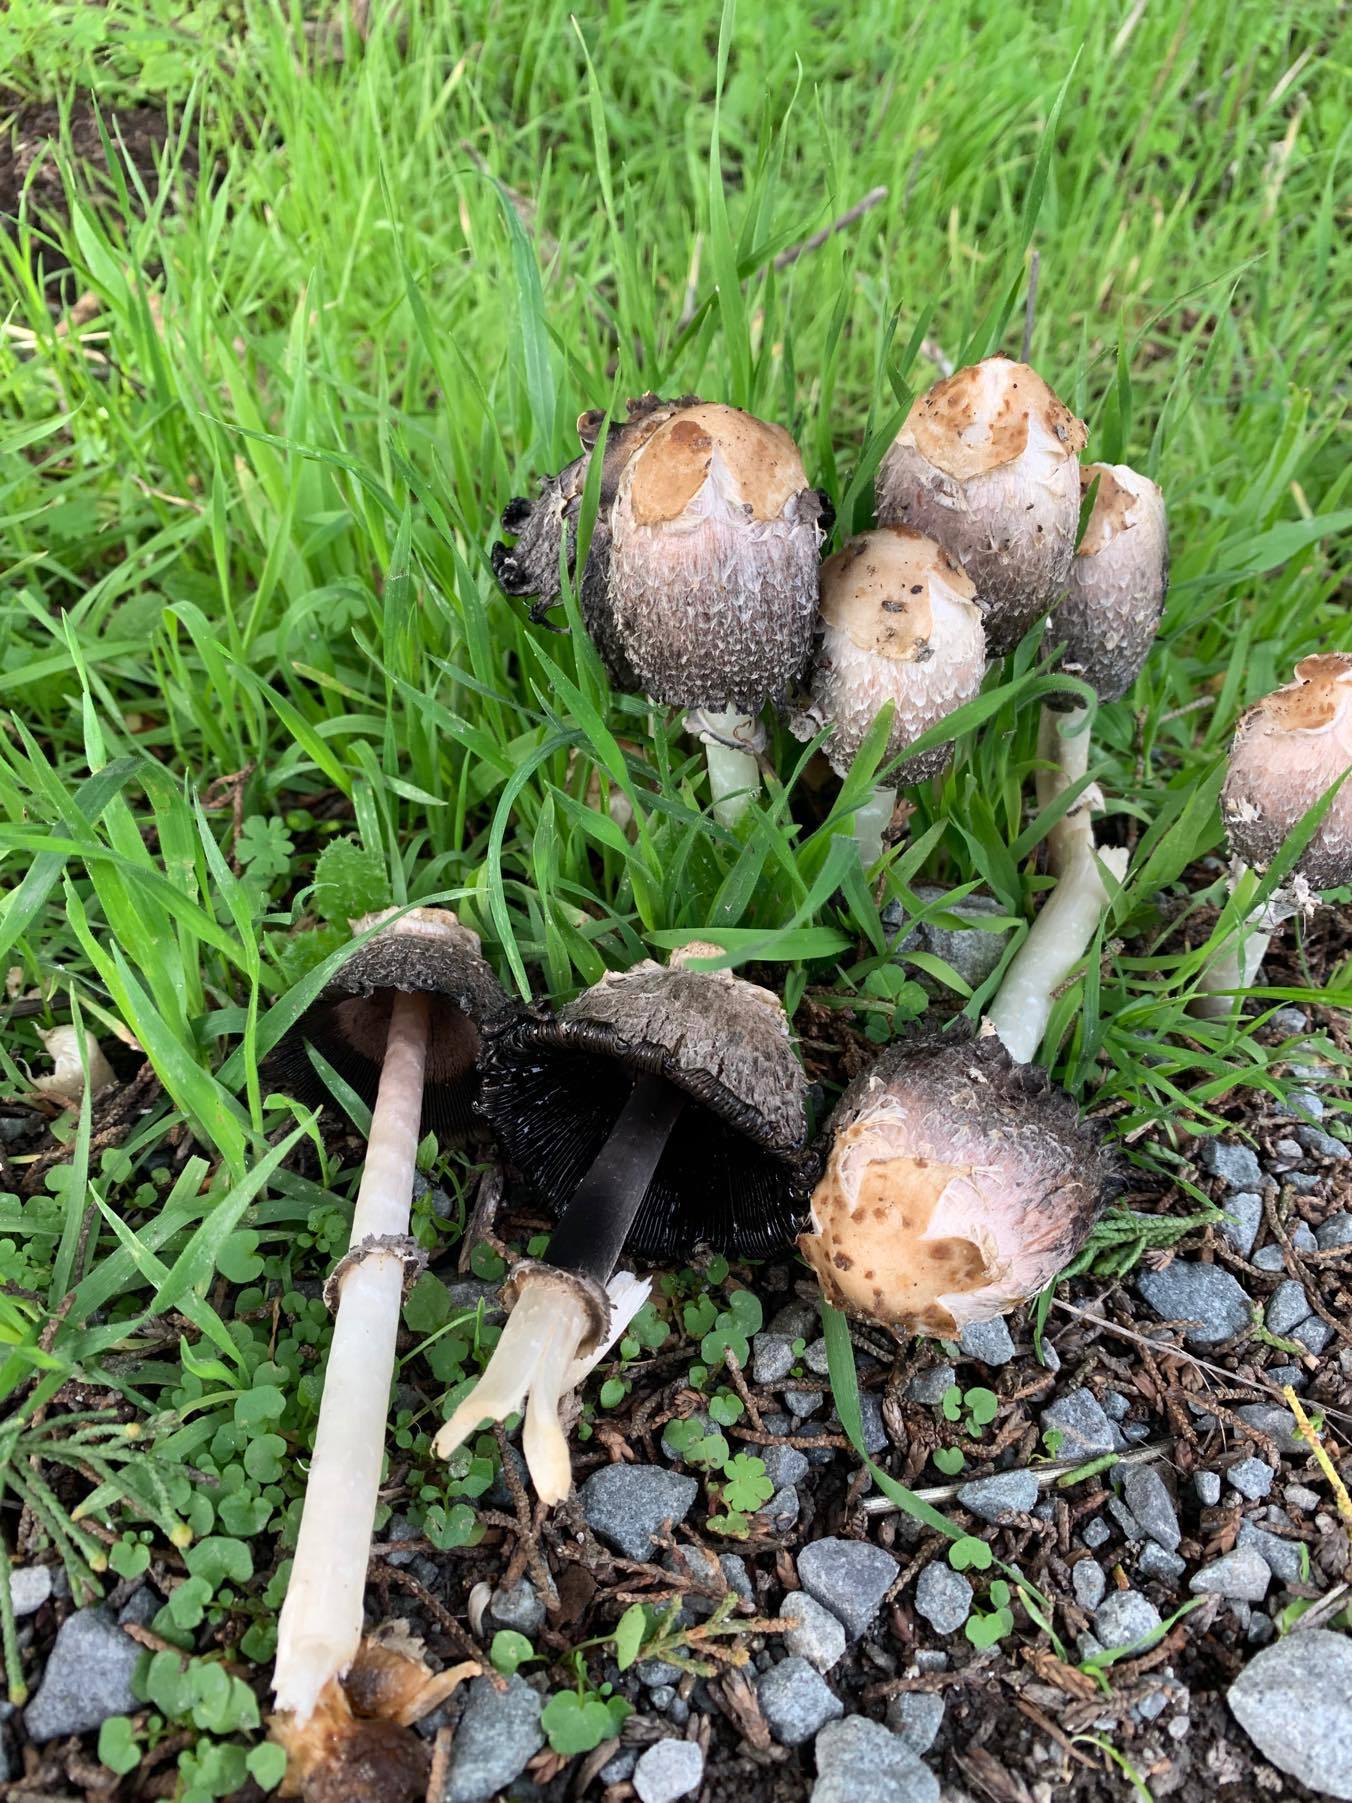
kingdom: Fungi
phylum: Basidiomycota
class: Agaricomycetes
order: Agaricales
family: Agaricaceae
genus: Coprinus
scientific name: Coprinus comatus
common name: Lawyer's wig
